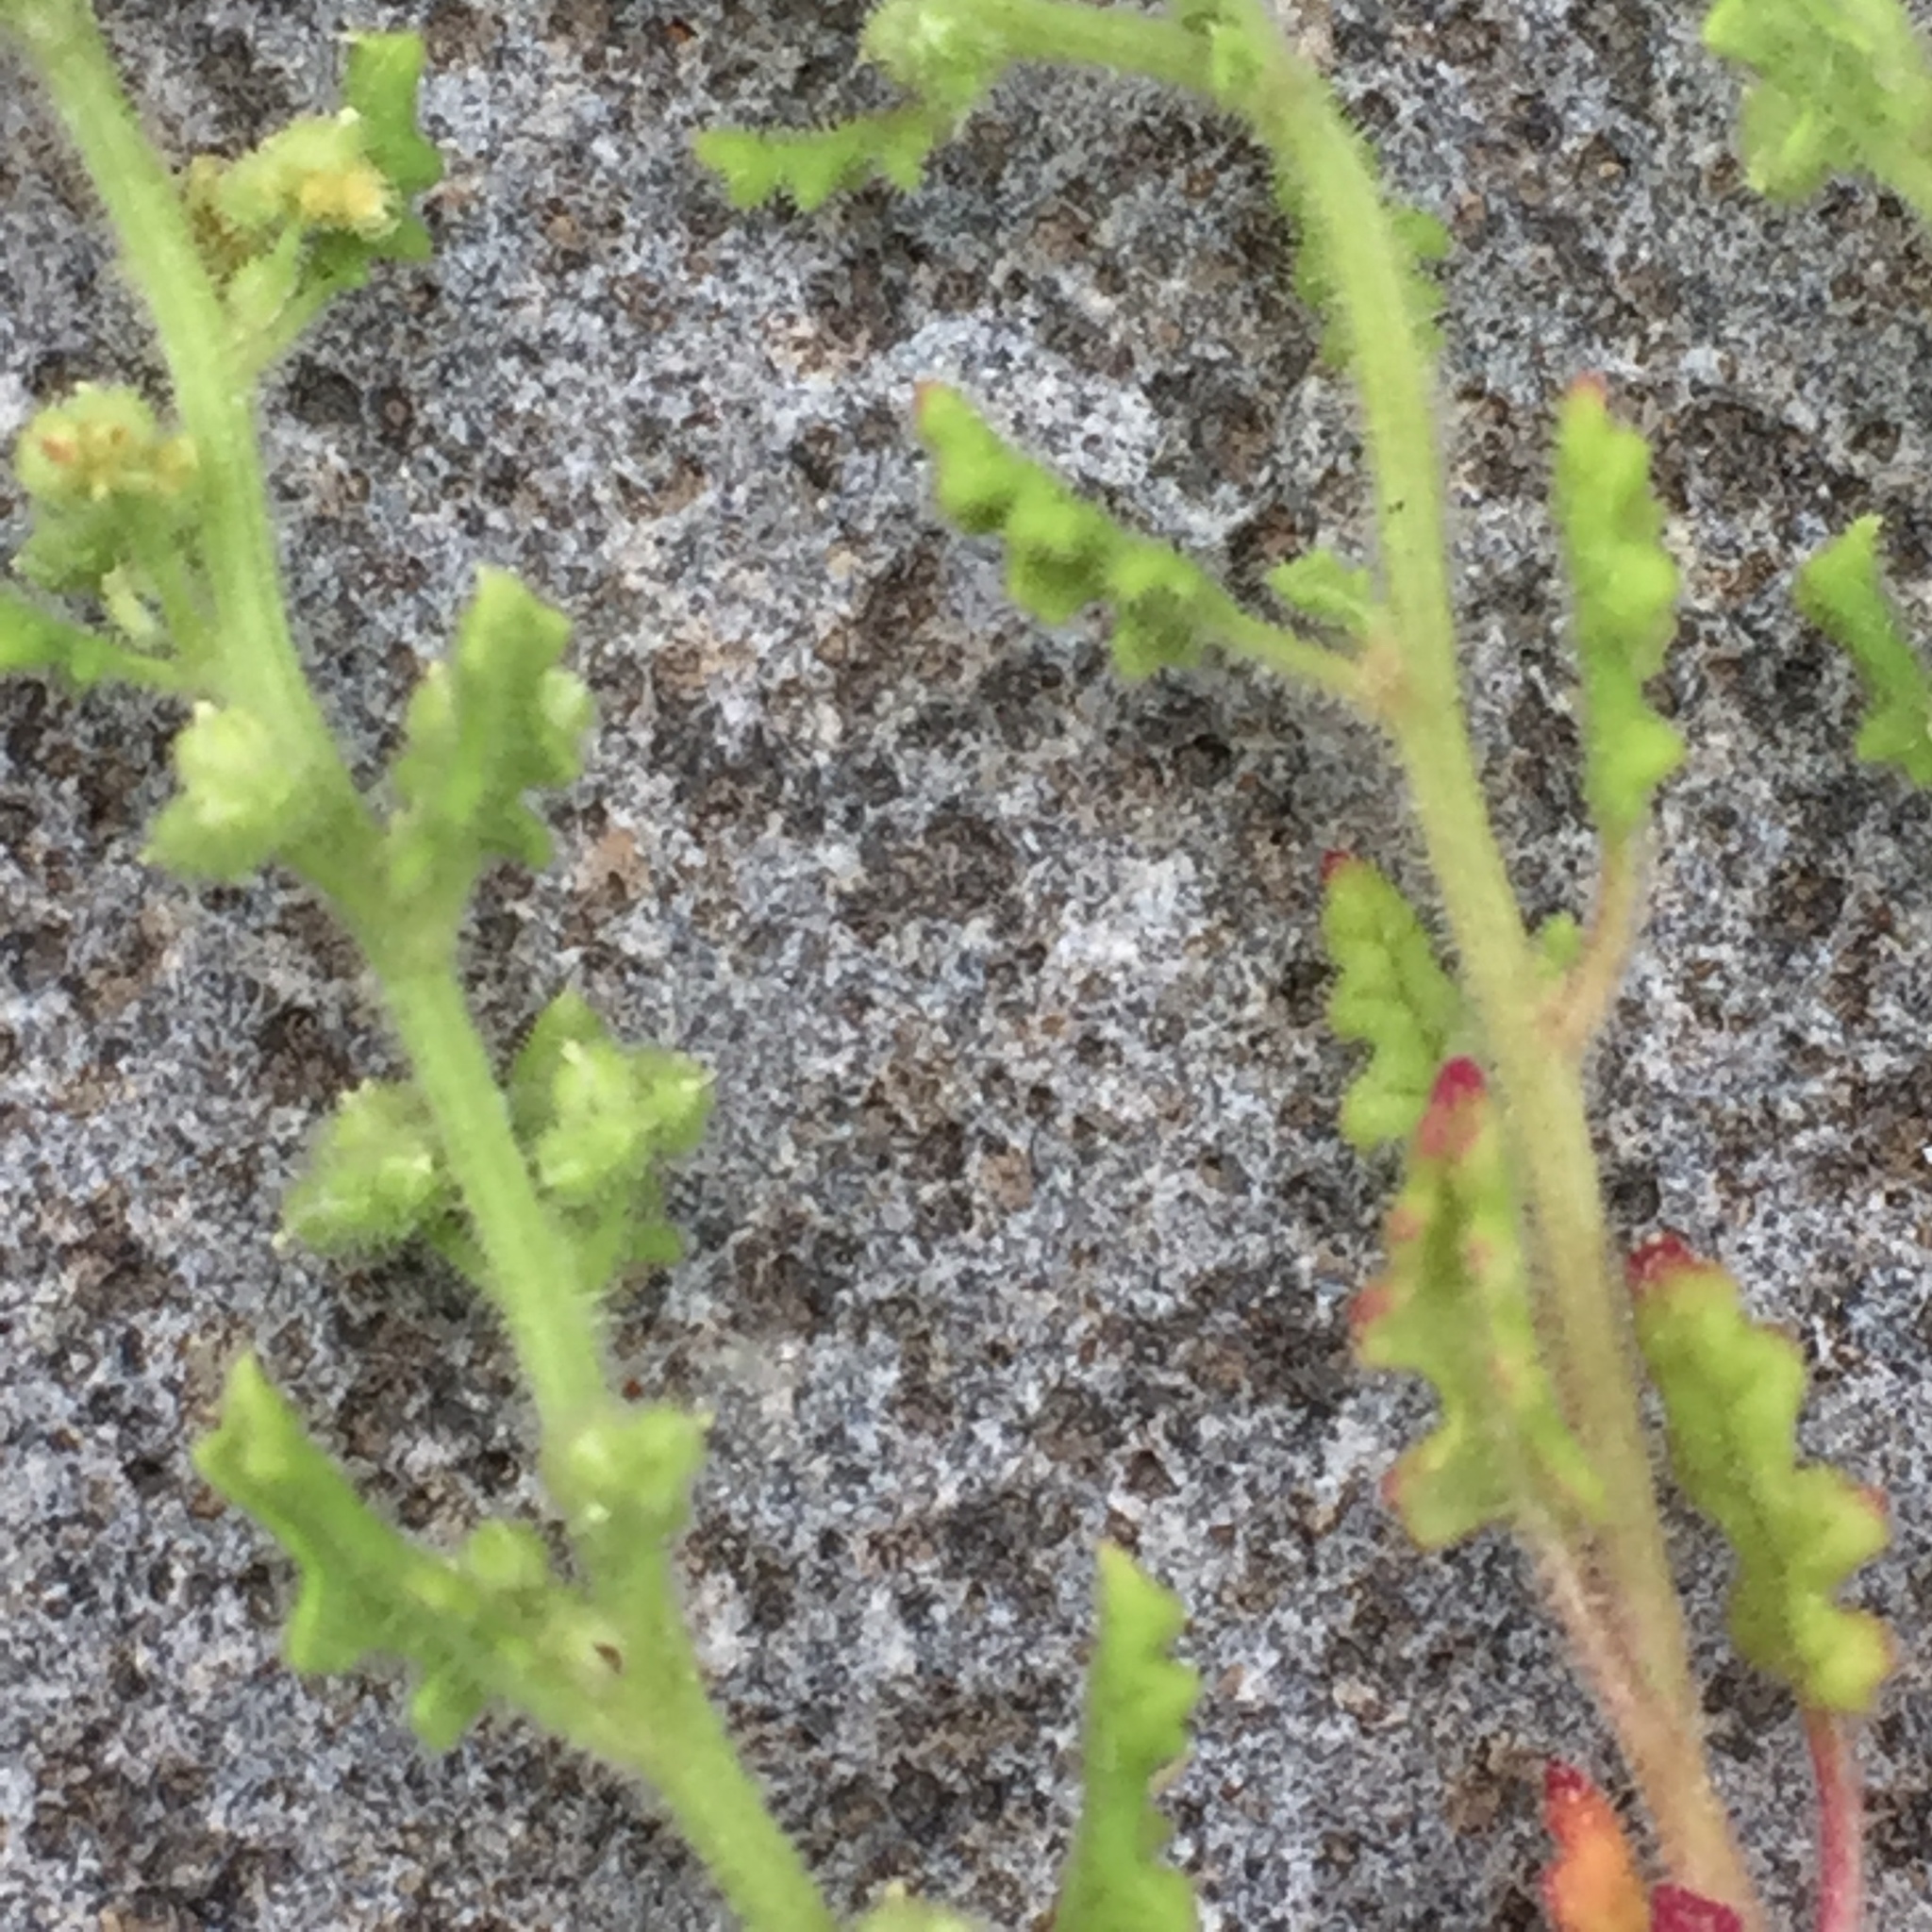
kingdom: Plantae
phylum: Tracheophyta
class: Magnoliopsida
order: Caryophyllales
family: Amaranthaceae
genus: Dysphania
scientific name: Dysphania botrys
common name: Feather-geranium
